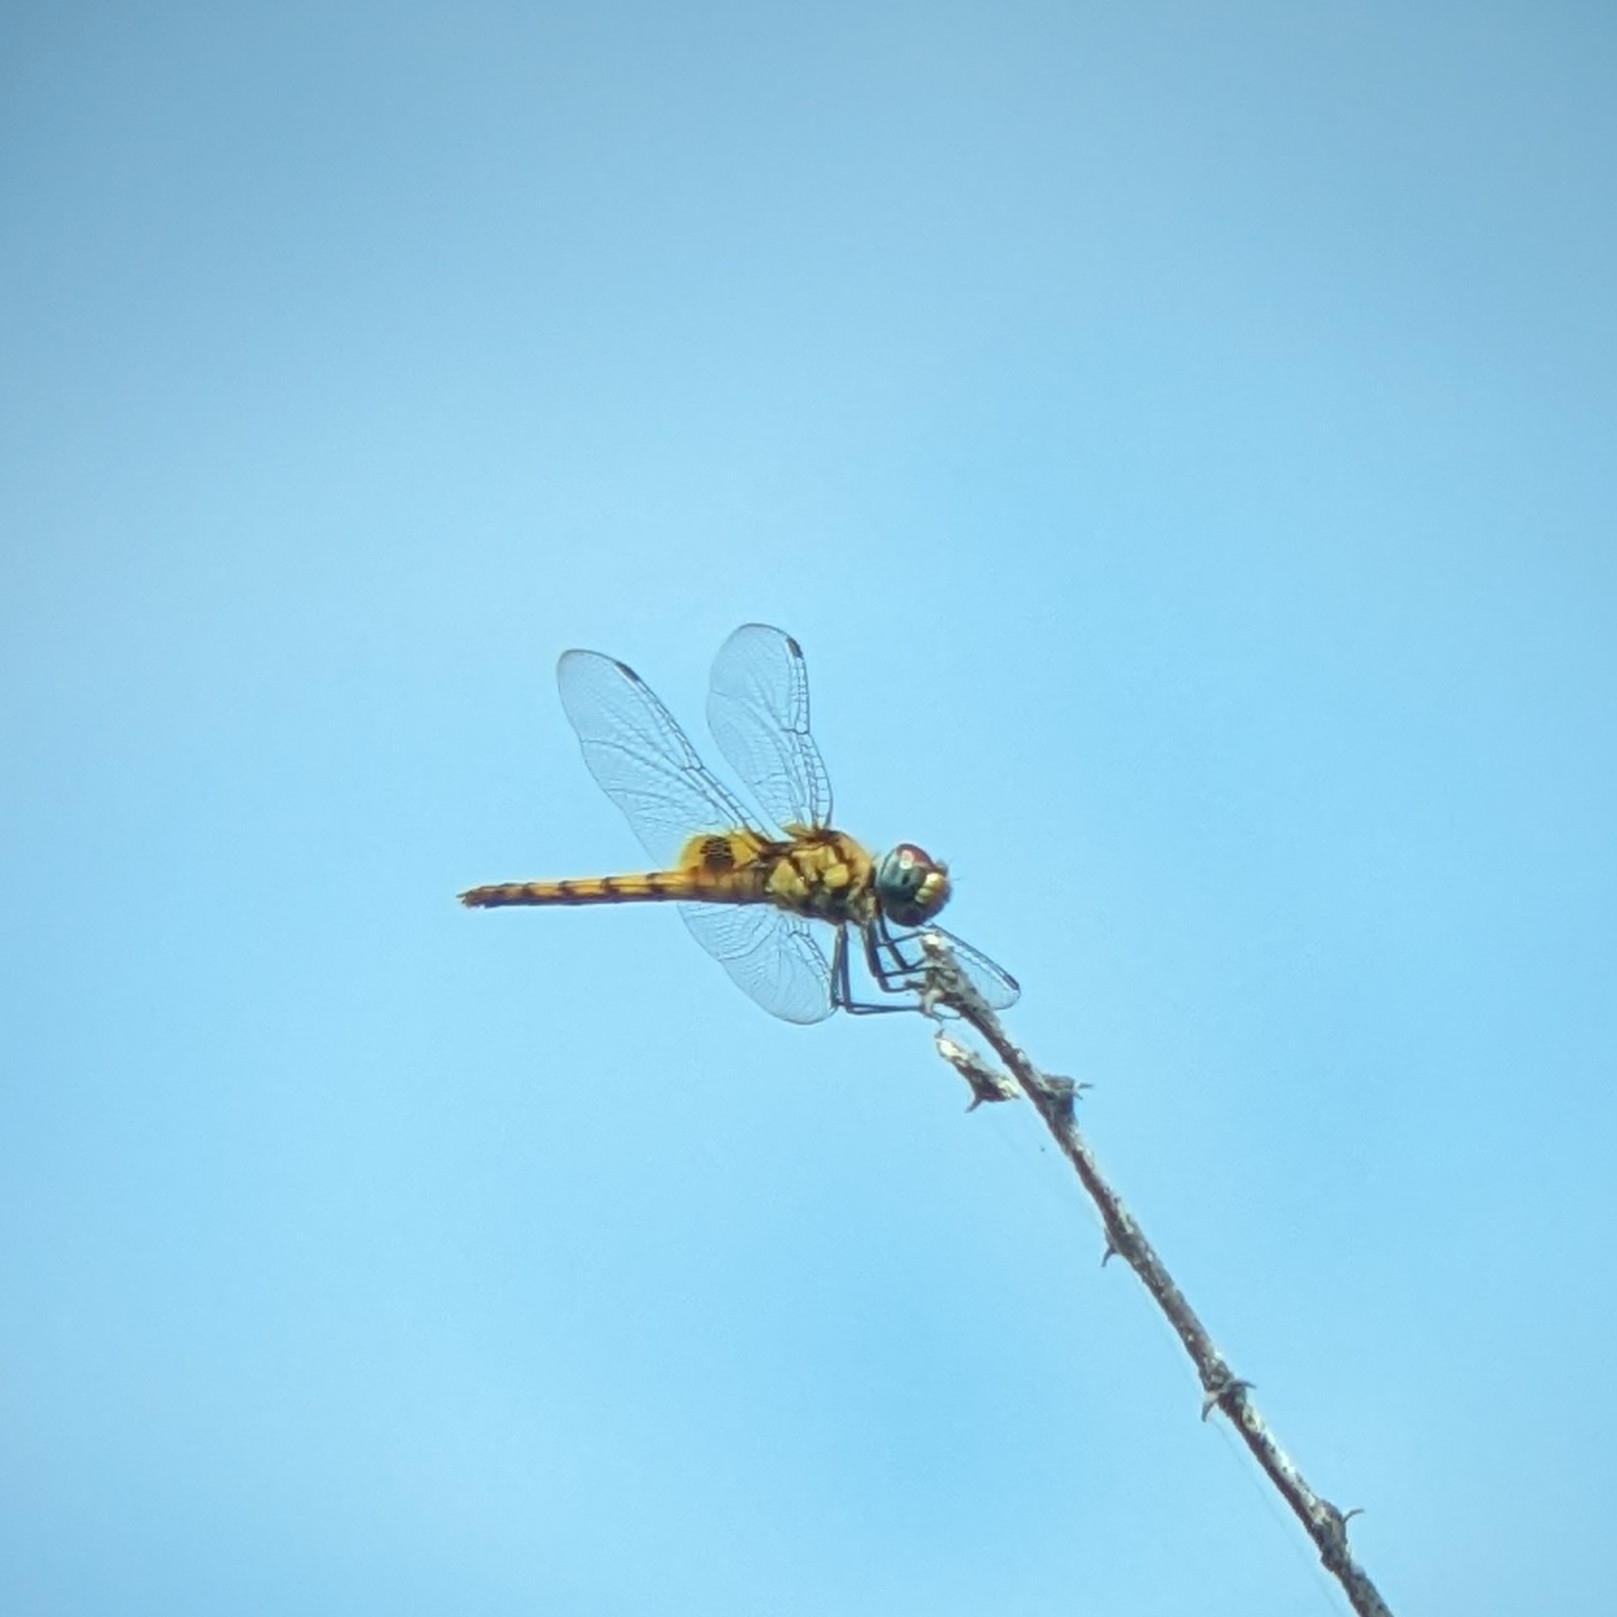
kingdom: Animalia
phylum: Arthropoda
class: Insecta
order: Odonata
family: Libellulidae
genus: Urothemis
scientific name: Urothemis signata
